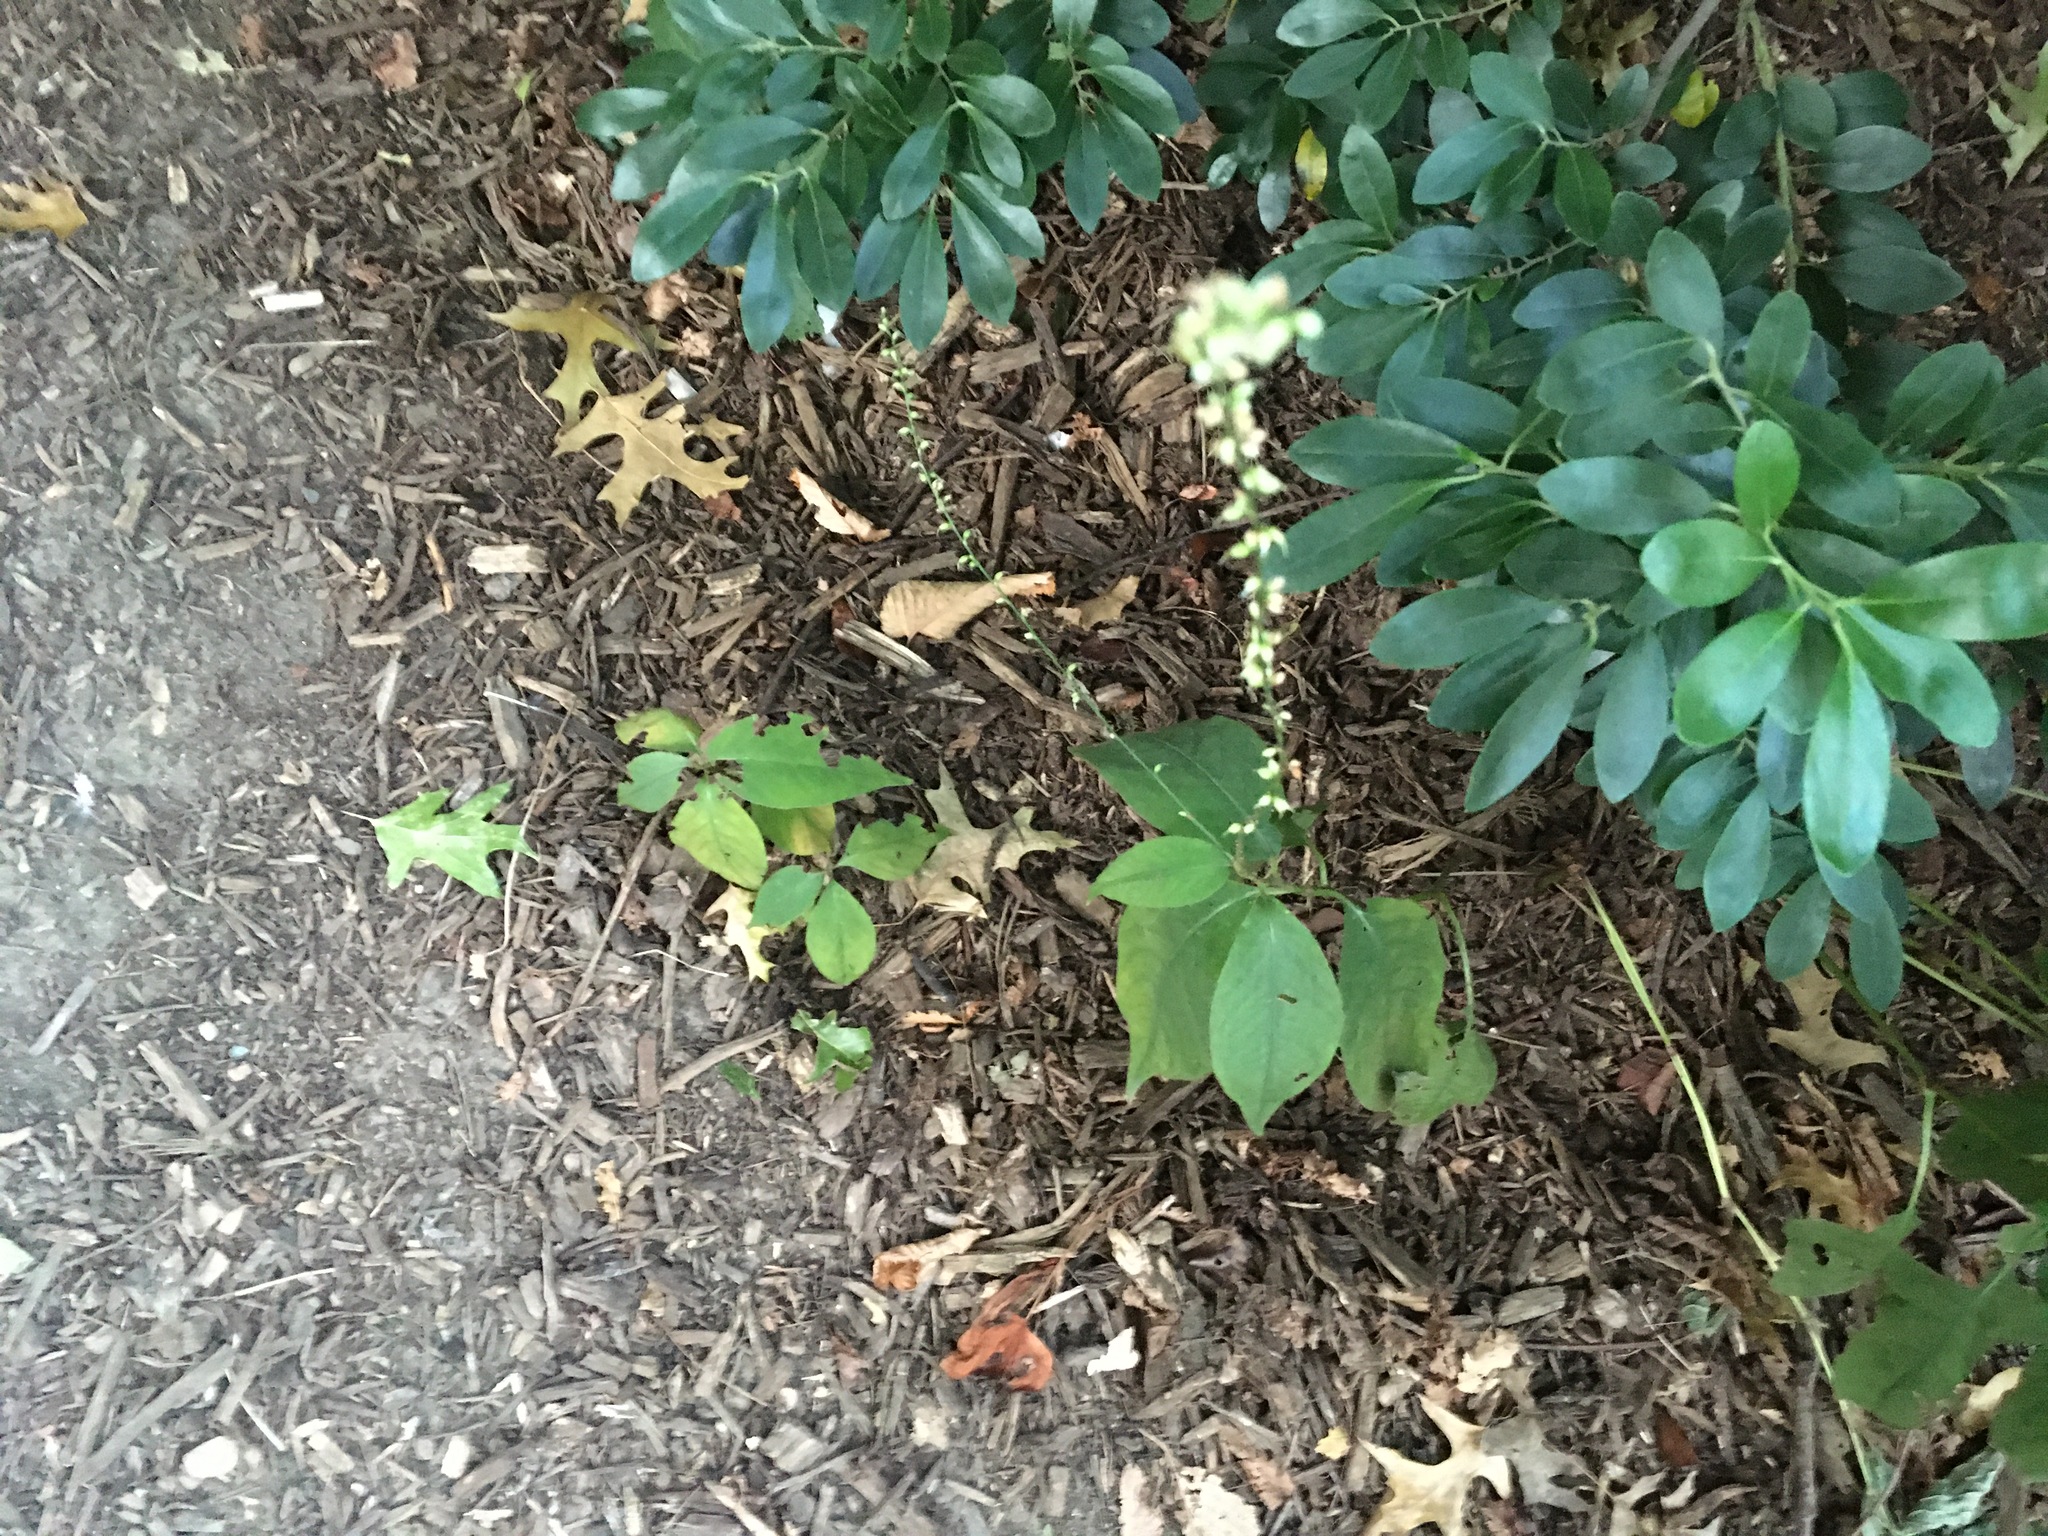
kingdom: Plantae
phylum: Tracheophyta
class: Magnoliopsida
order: Caryophyllales
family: Polygonaceae
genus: Persicaria
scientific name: Persicaria virginiana
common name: Jumpseed
